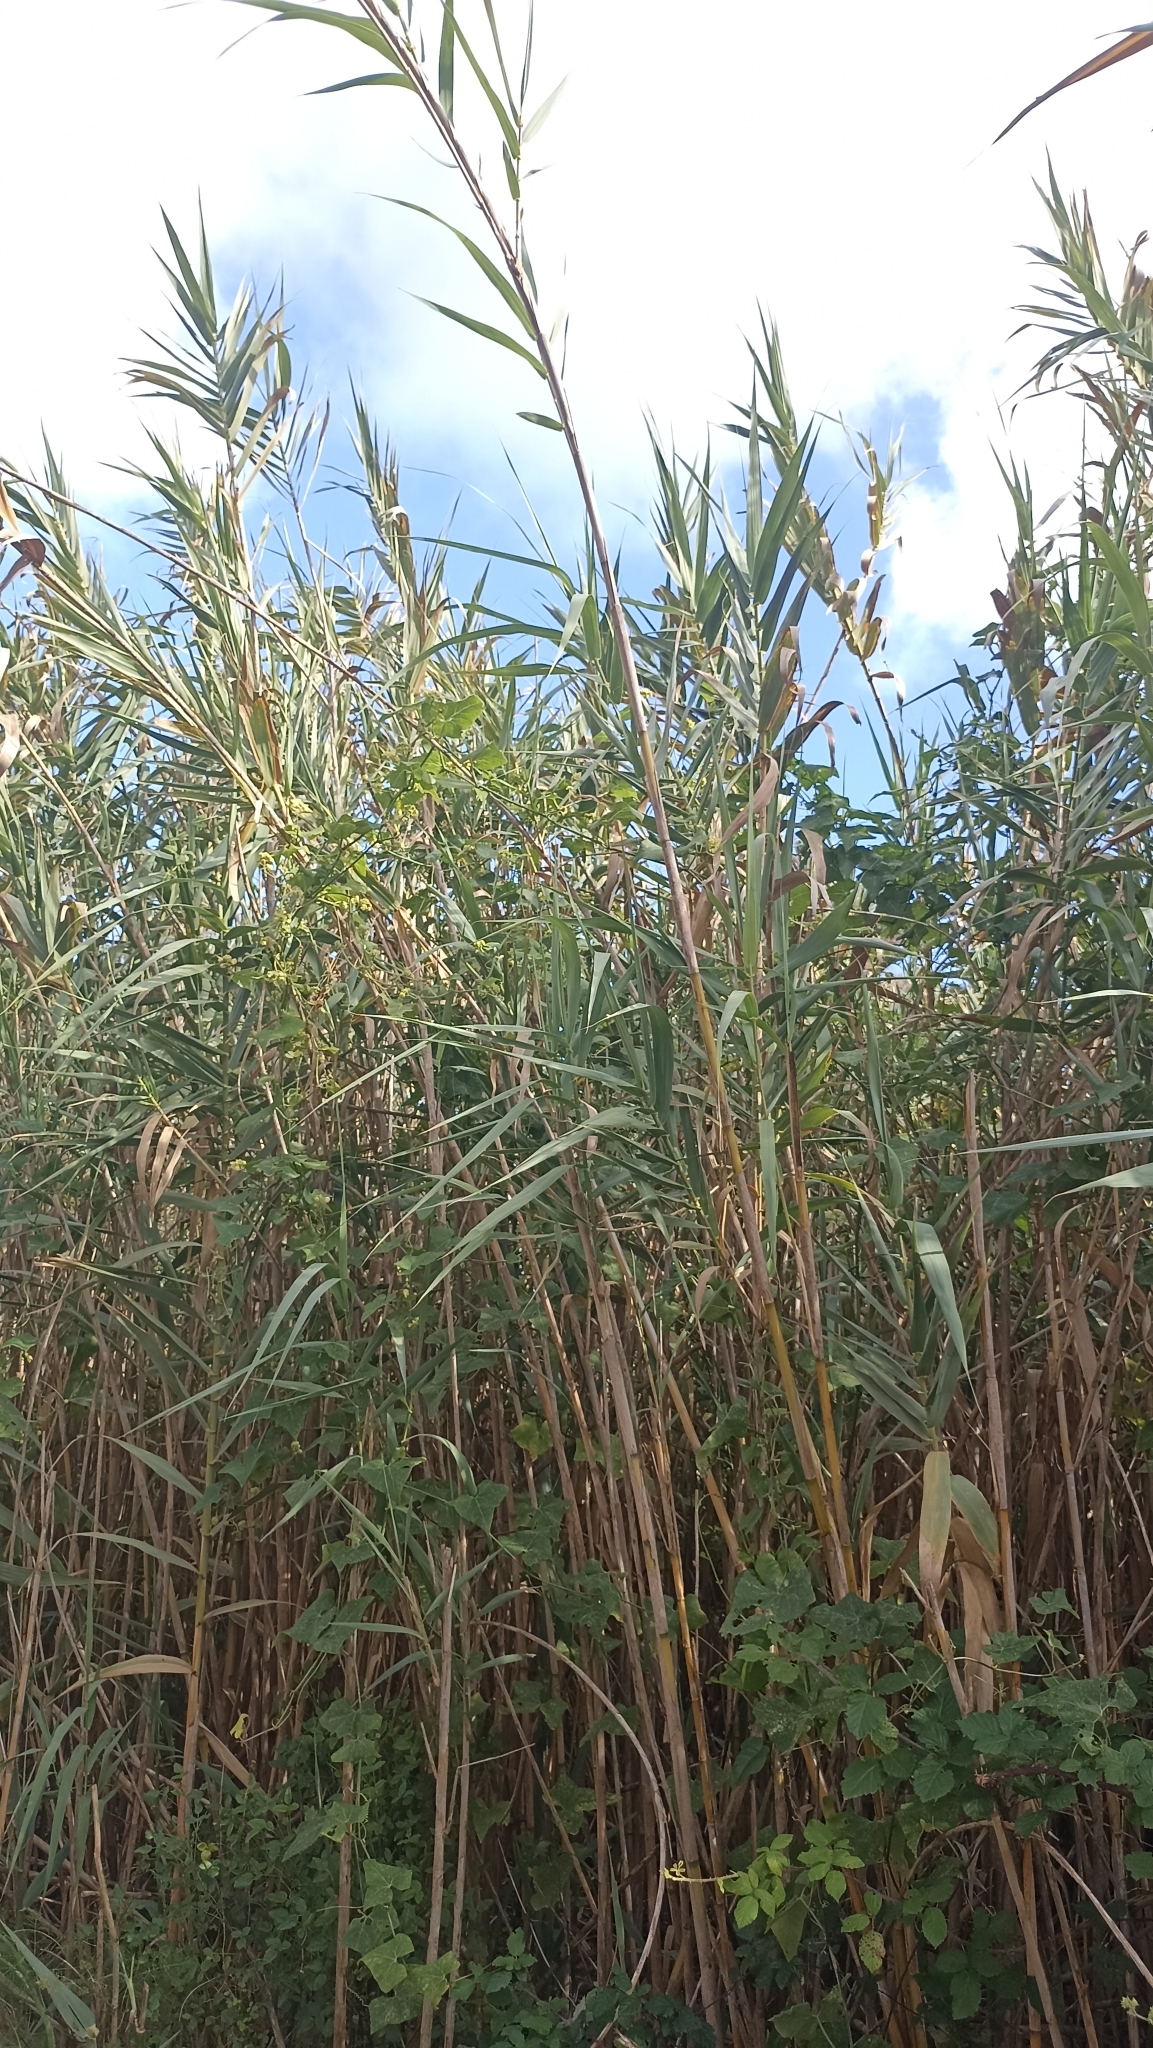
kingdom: Plantae
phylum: Tracheophyta
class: Liliopsida
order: Poales
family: Poaceae
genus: Arundo
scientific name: Arundo donax
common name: Giant reed
